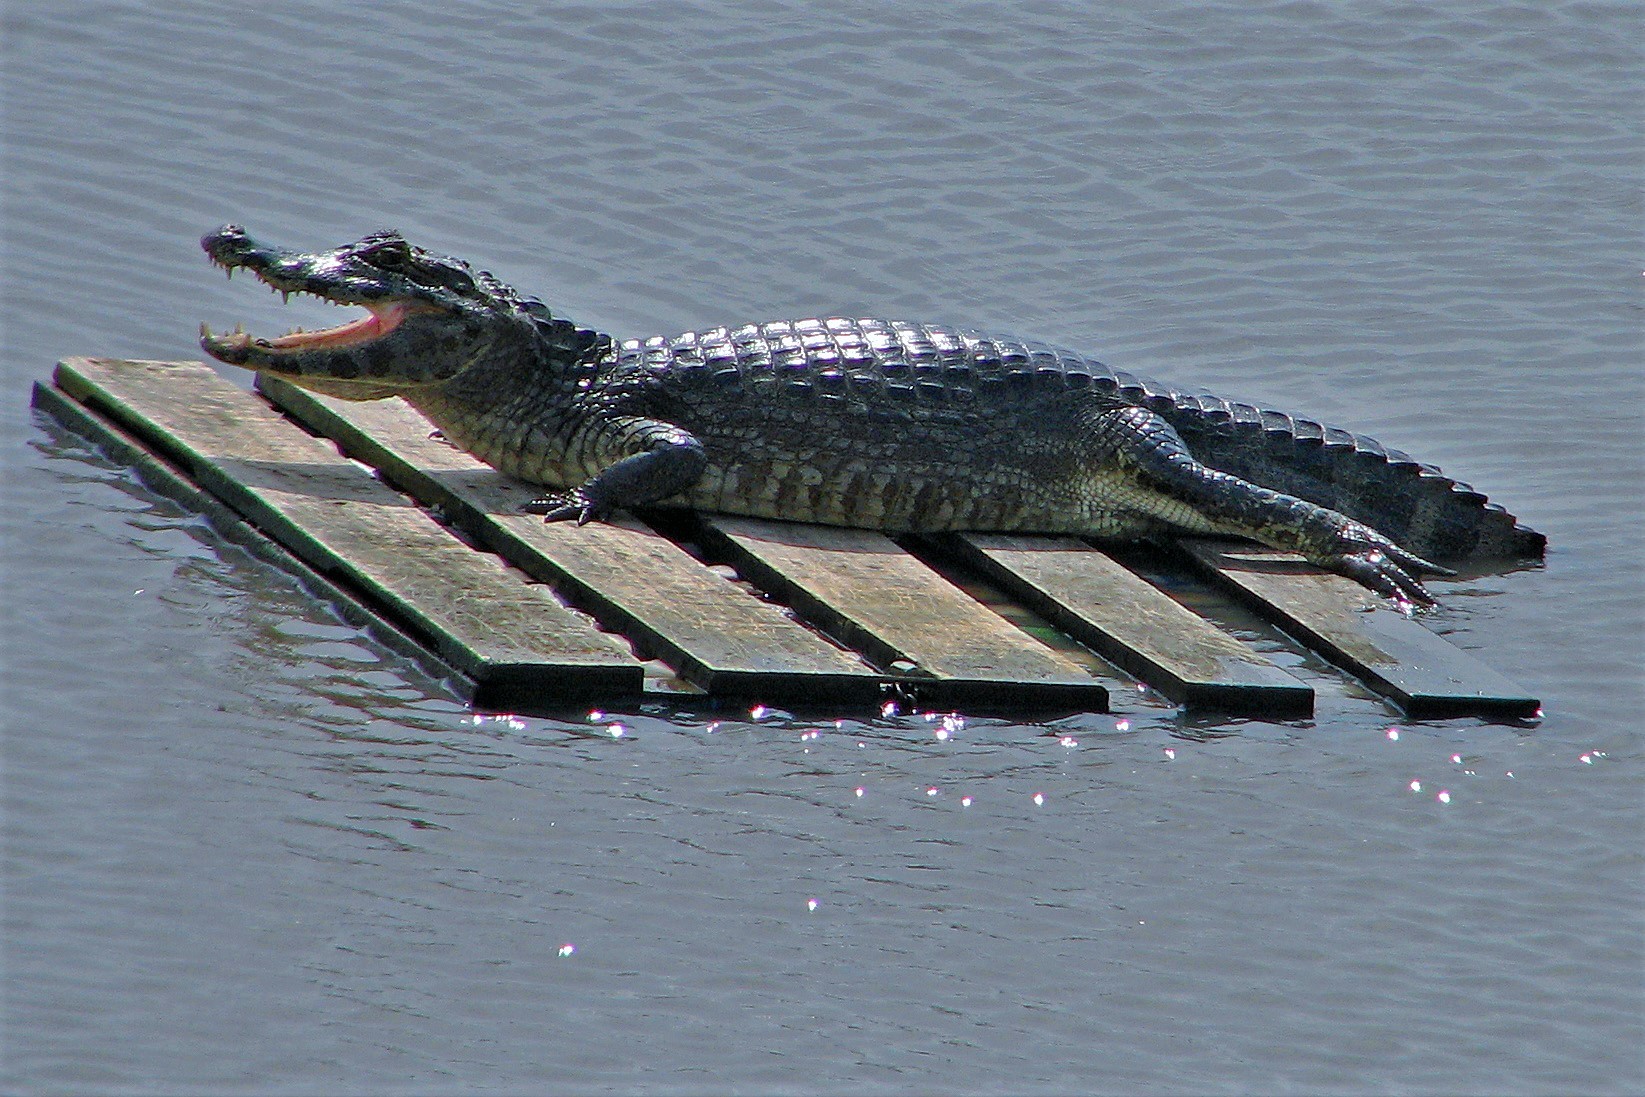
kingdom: Animalia
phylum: Chordata
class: Crocodylia
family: Alligatoridae
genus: Caiman
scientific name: Caiman yacare
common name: Yacare caiman
